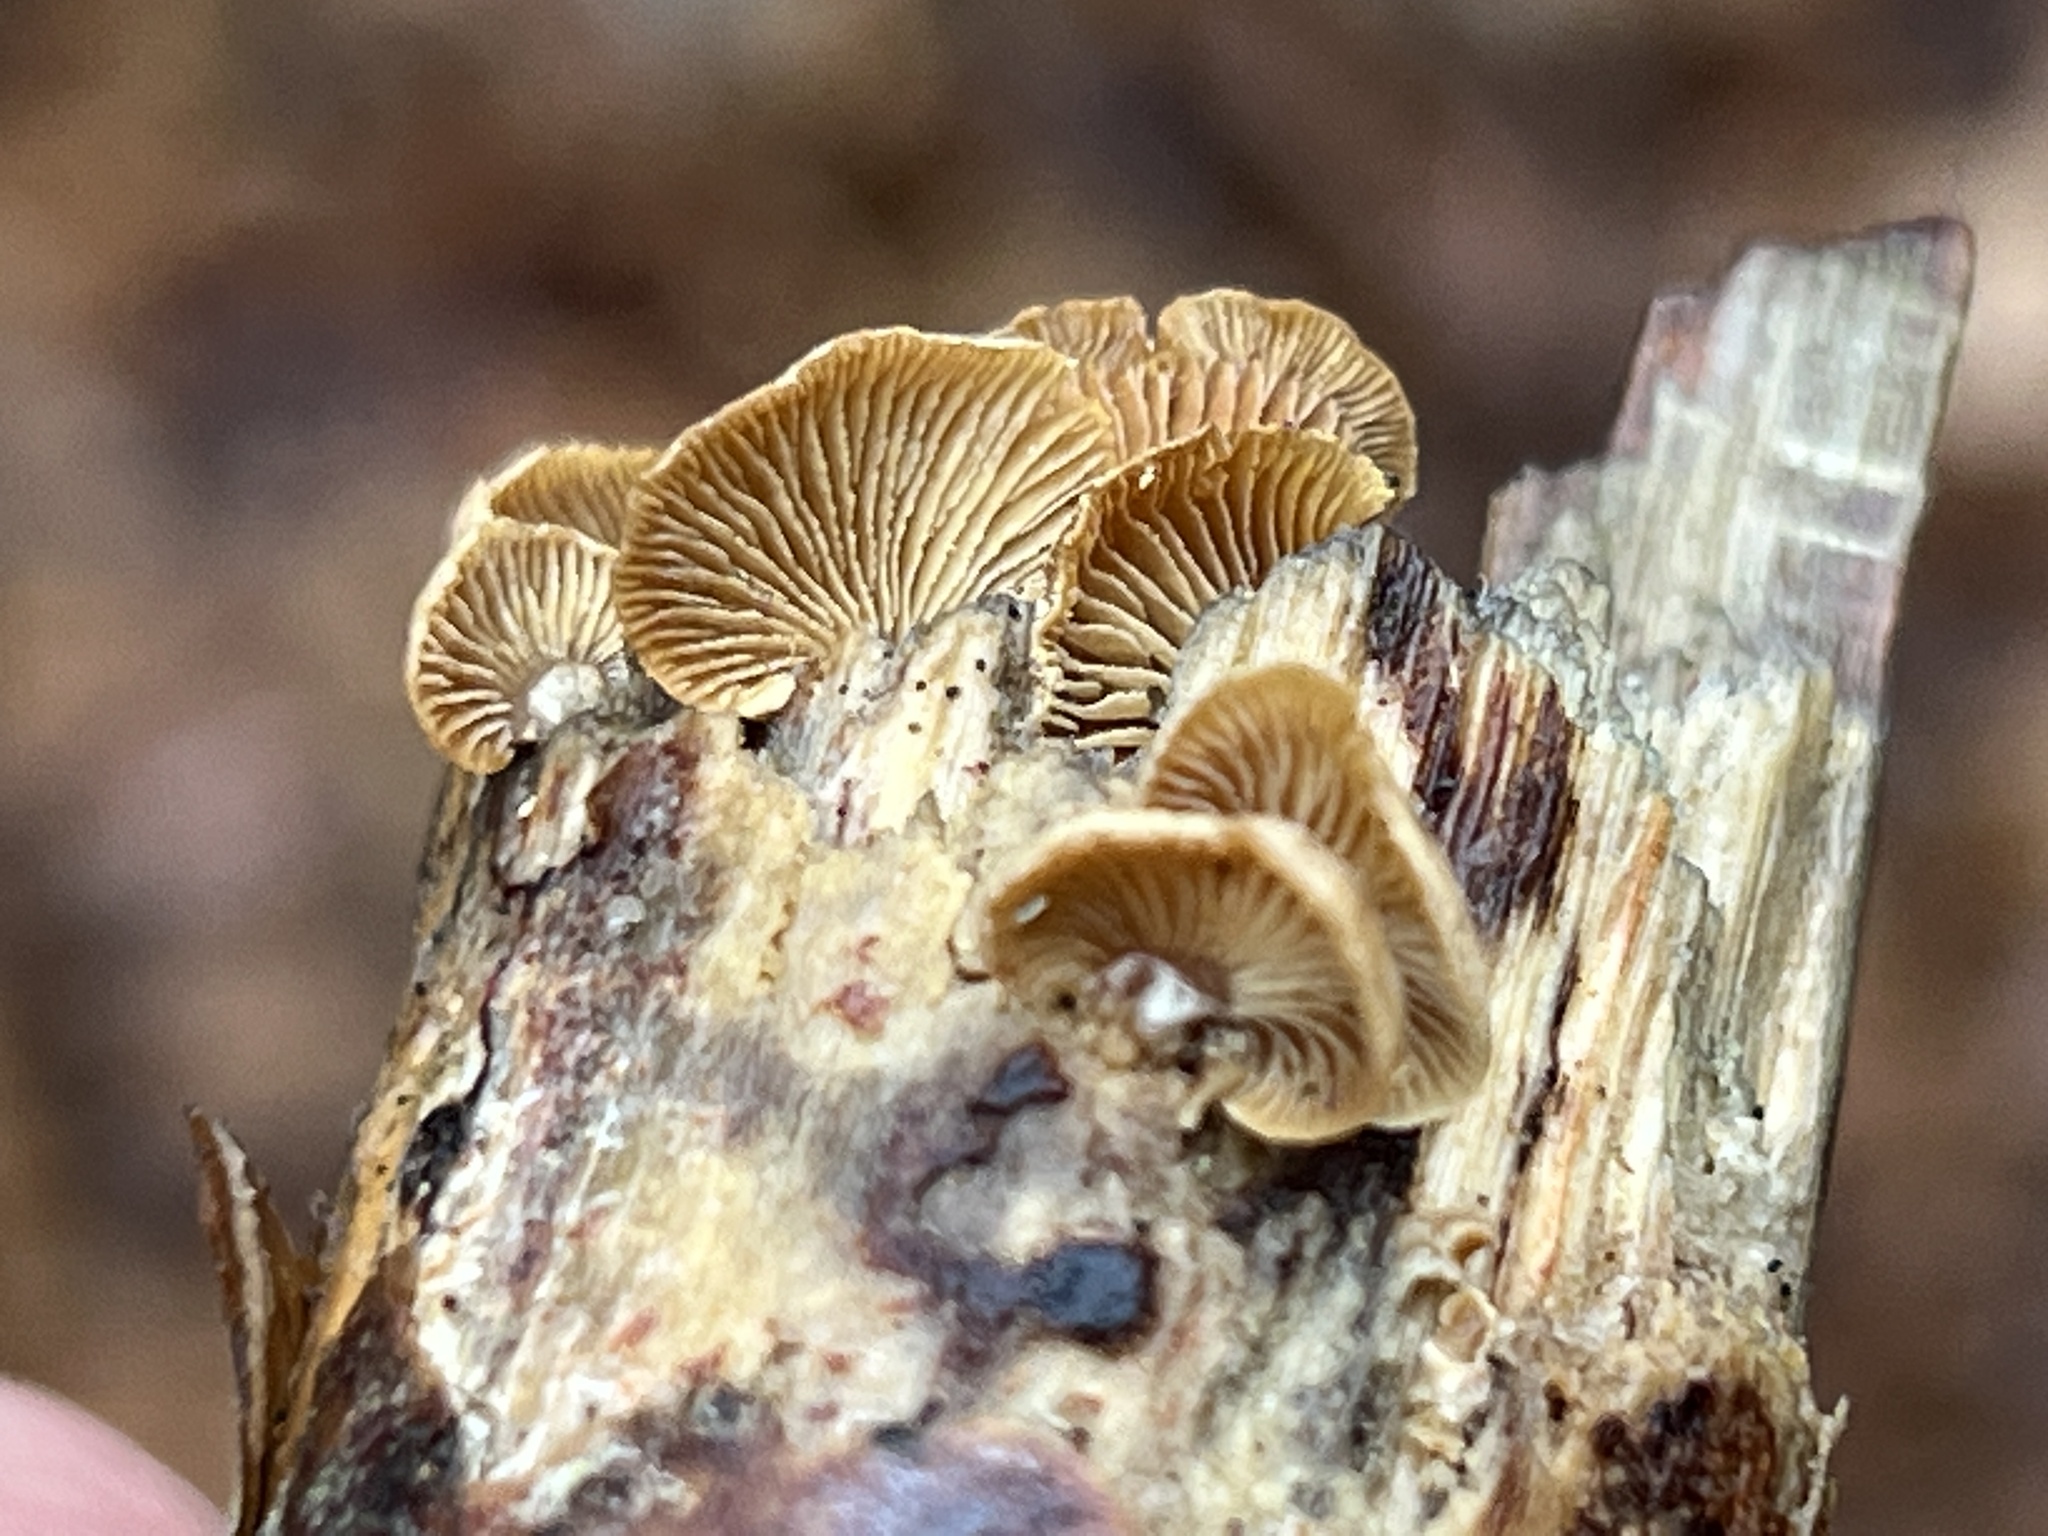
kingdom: Fungi
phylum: Basidiomycota
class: Agaricomycetes
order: Agaricales
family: Mycenaceae
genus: Panellus
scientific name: Panellus stipticus
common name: Bitter oysterling
